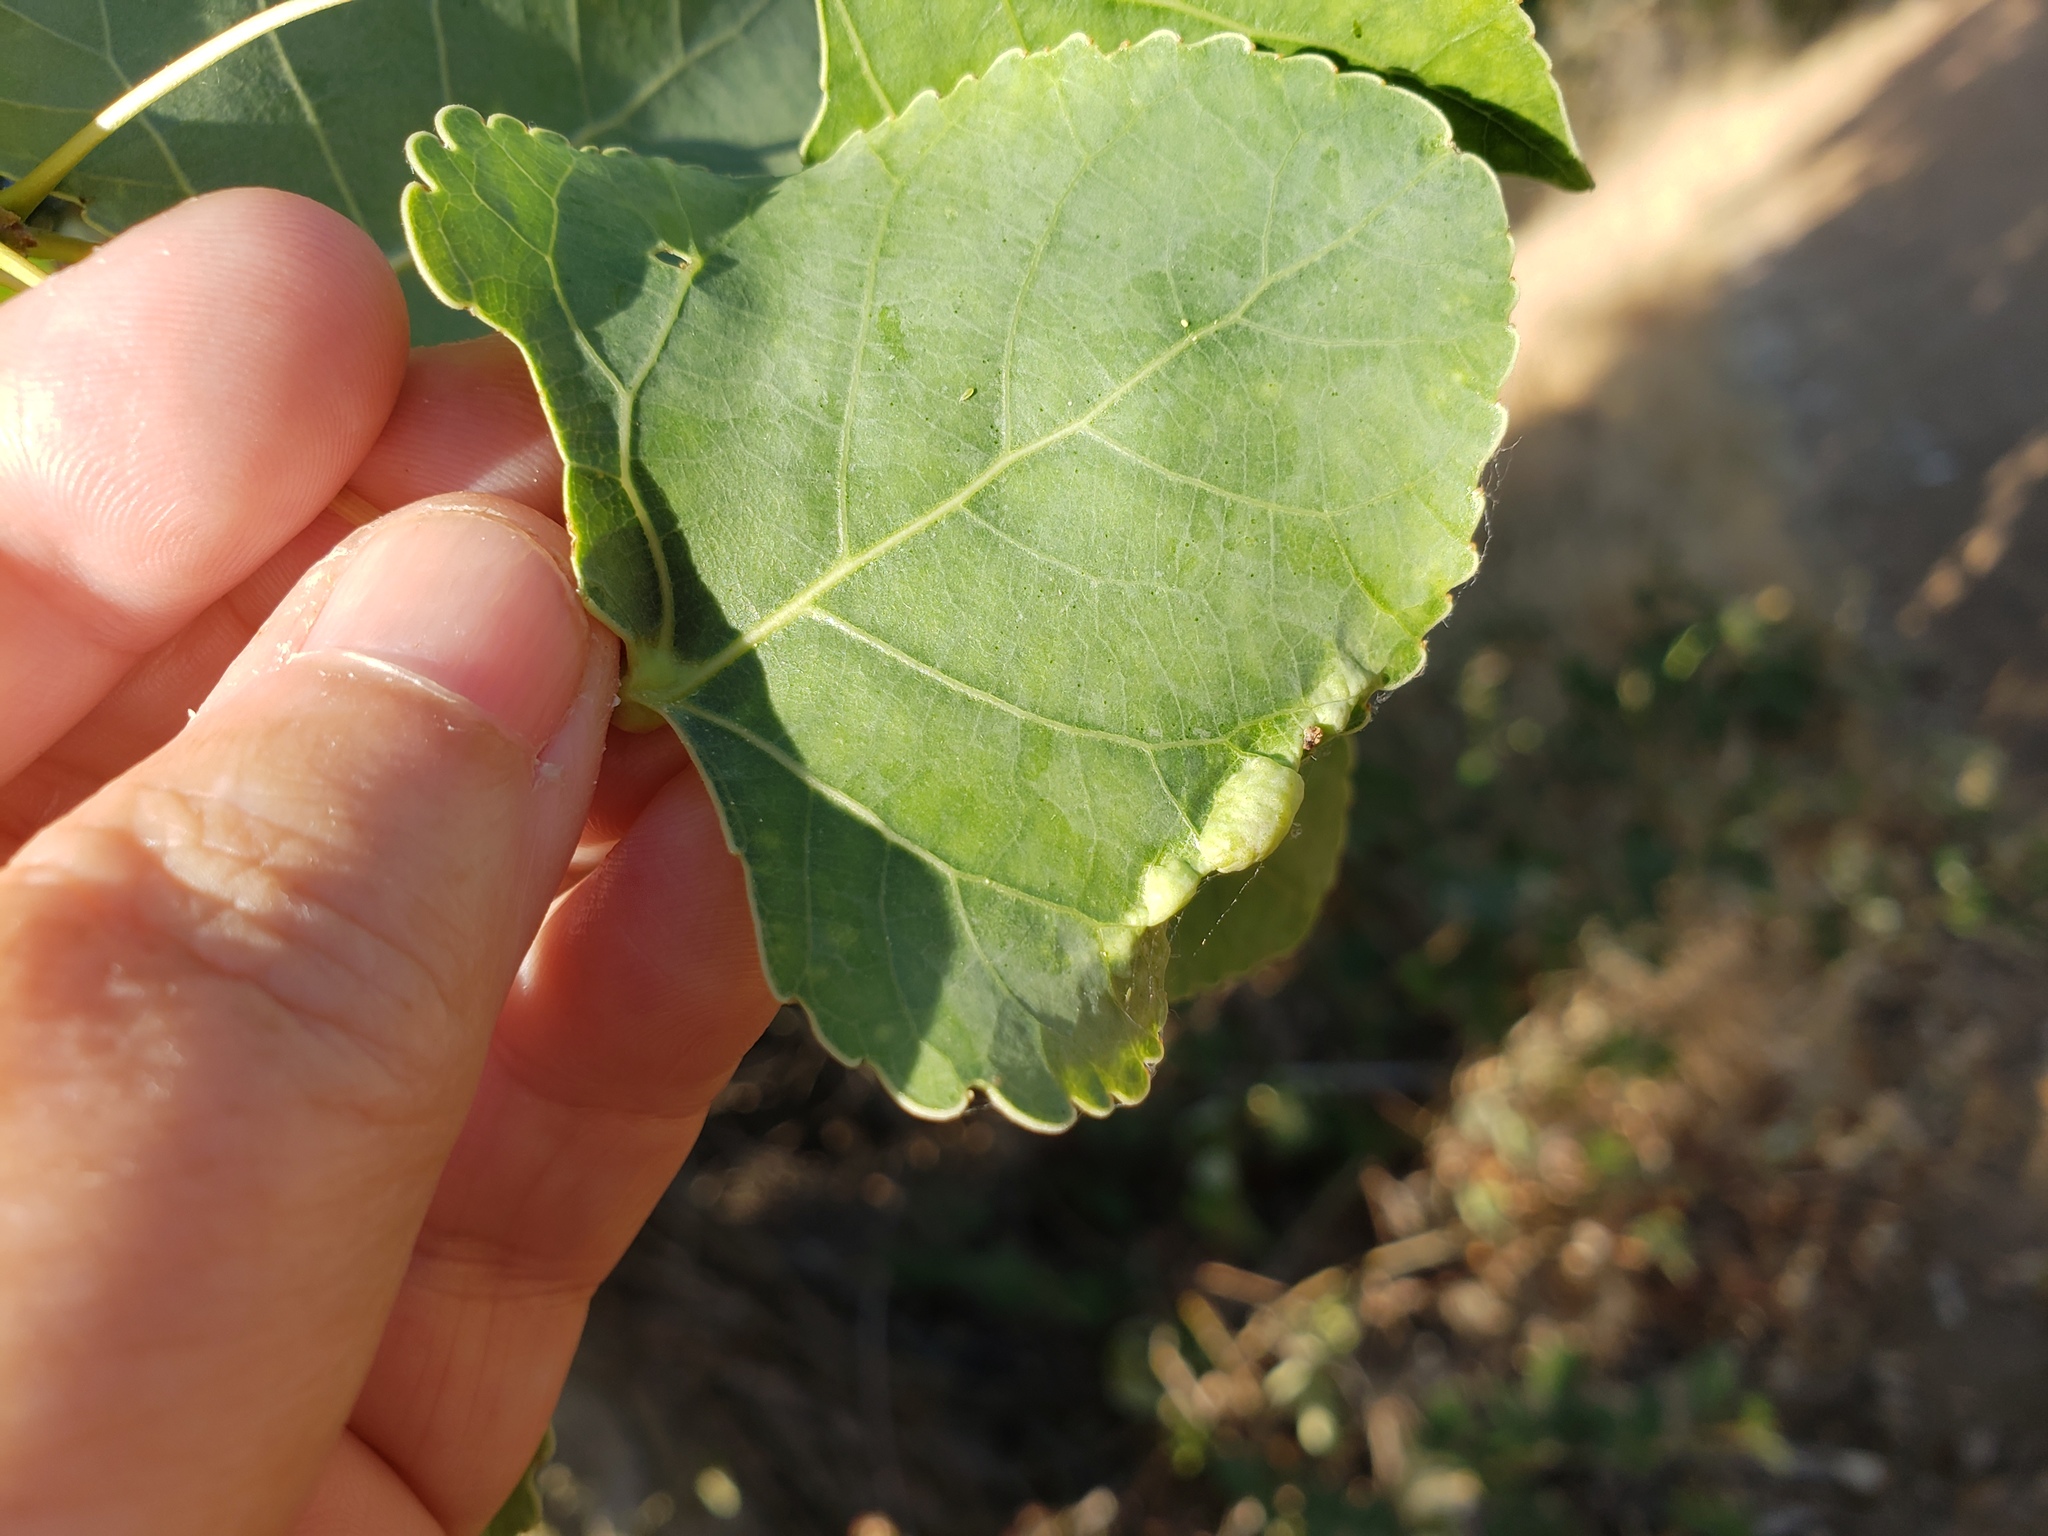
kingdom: Animalia
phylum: Arthropoda
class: Insecta
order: Hemiptera
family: Aphididae
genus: Thecabius
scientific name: Thecabius populimonilis
